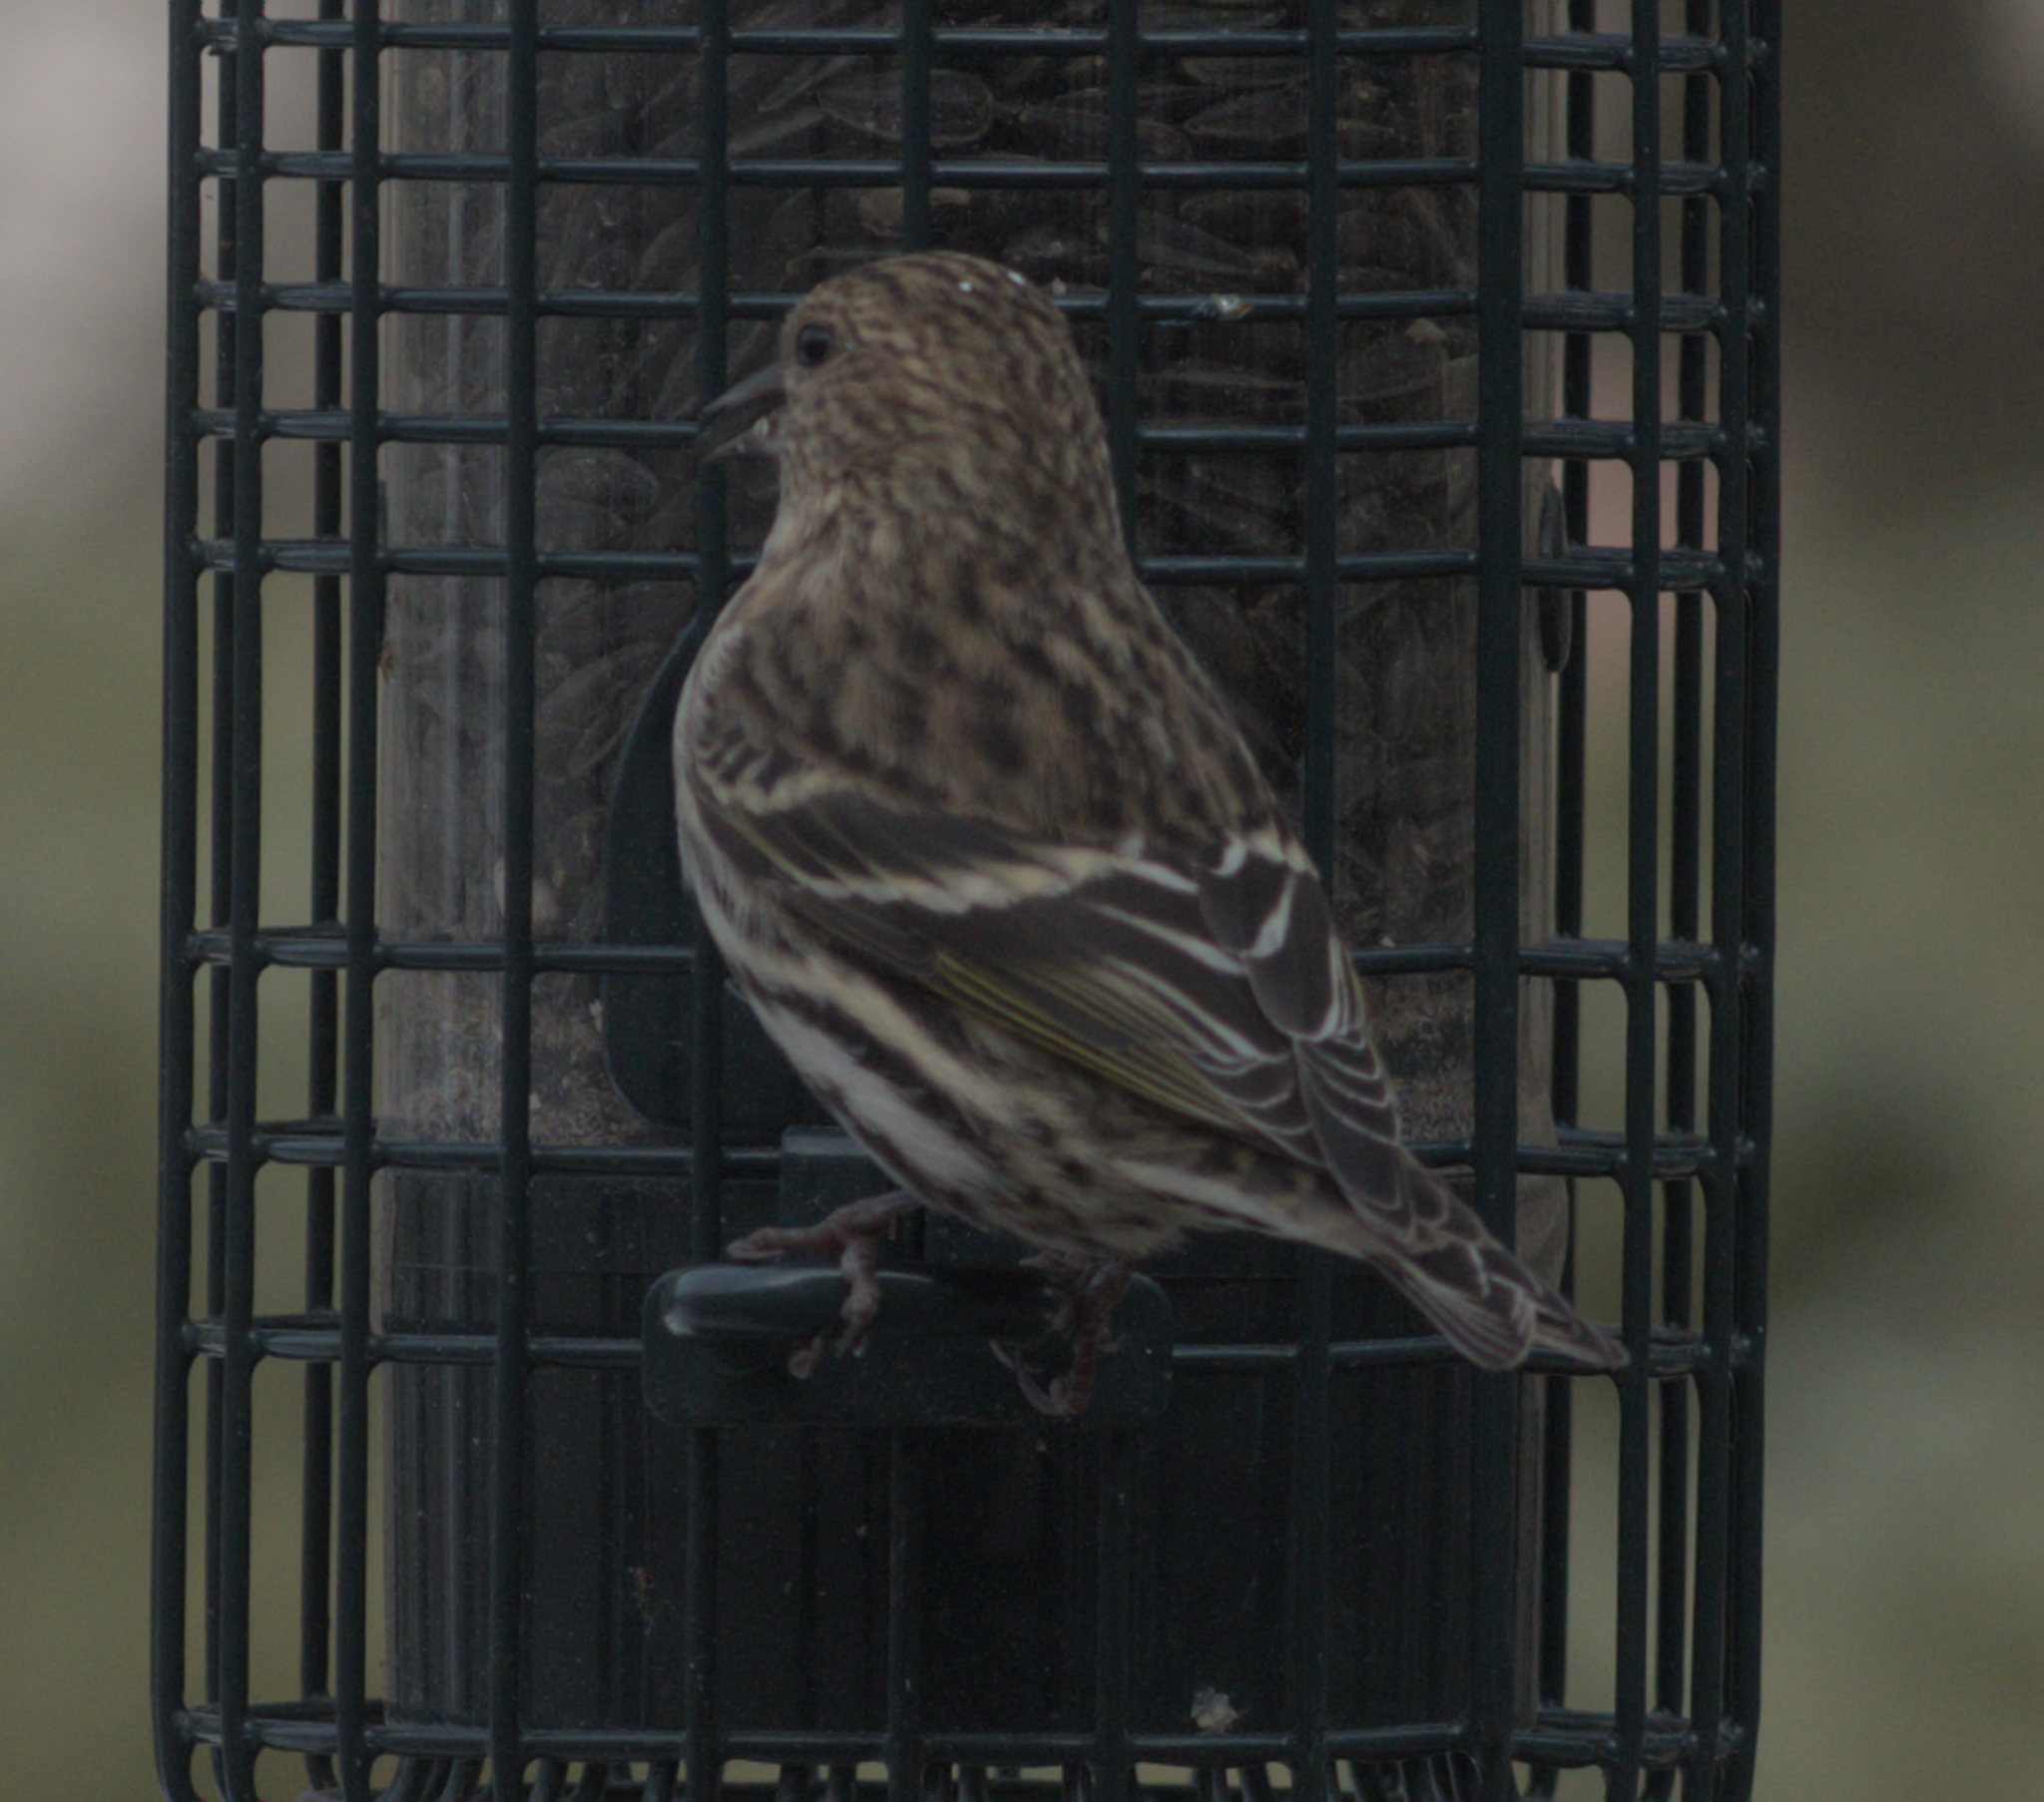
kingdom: Animalia
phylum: Chordata
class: Aves
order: Passeriformes
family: Fringillidae
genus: Spinus
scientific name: Spinus pinus
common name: Pine siskin
